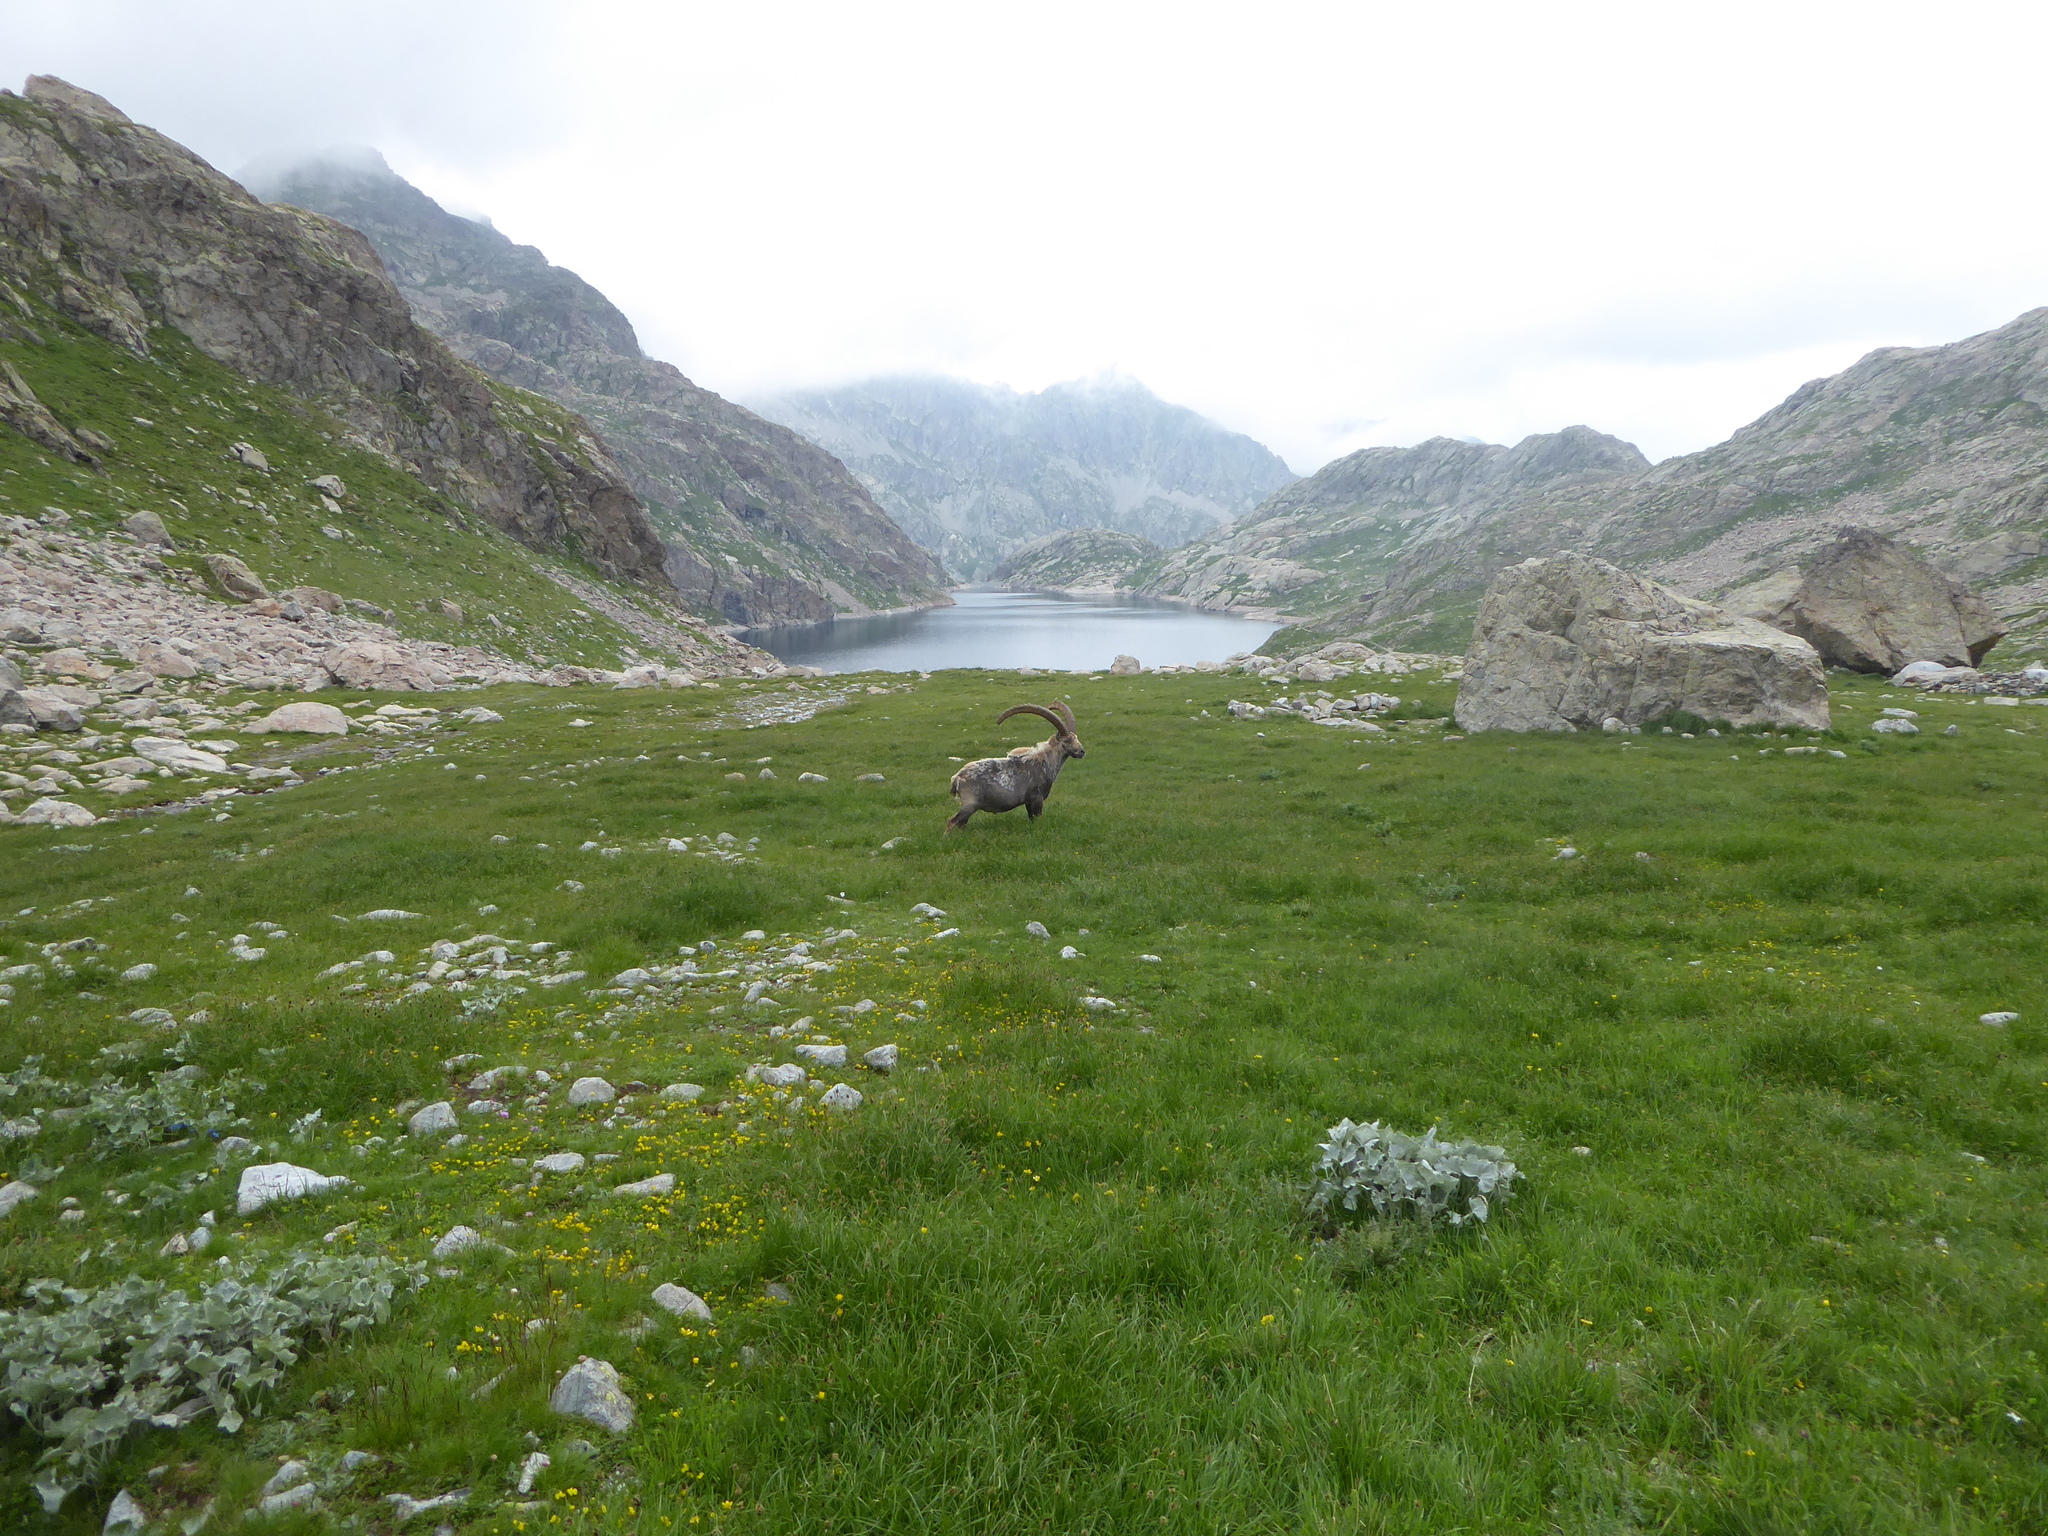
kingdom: Animalia
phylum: Chordata
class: Mammalia
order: Artiodactyla
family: Bovidae
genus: Capra
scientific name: Capra ibex
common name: Alpine ibex
